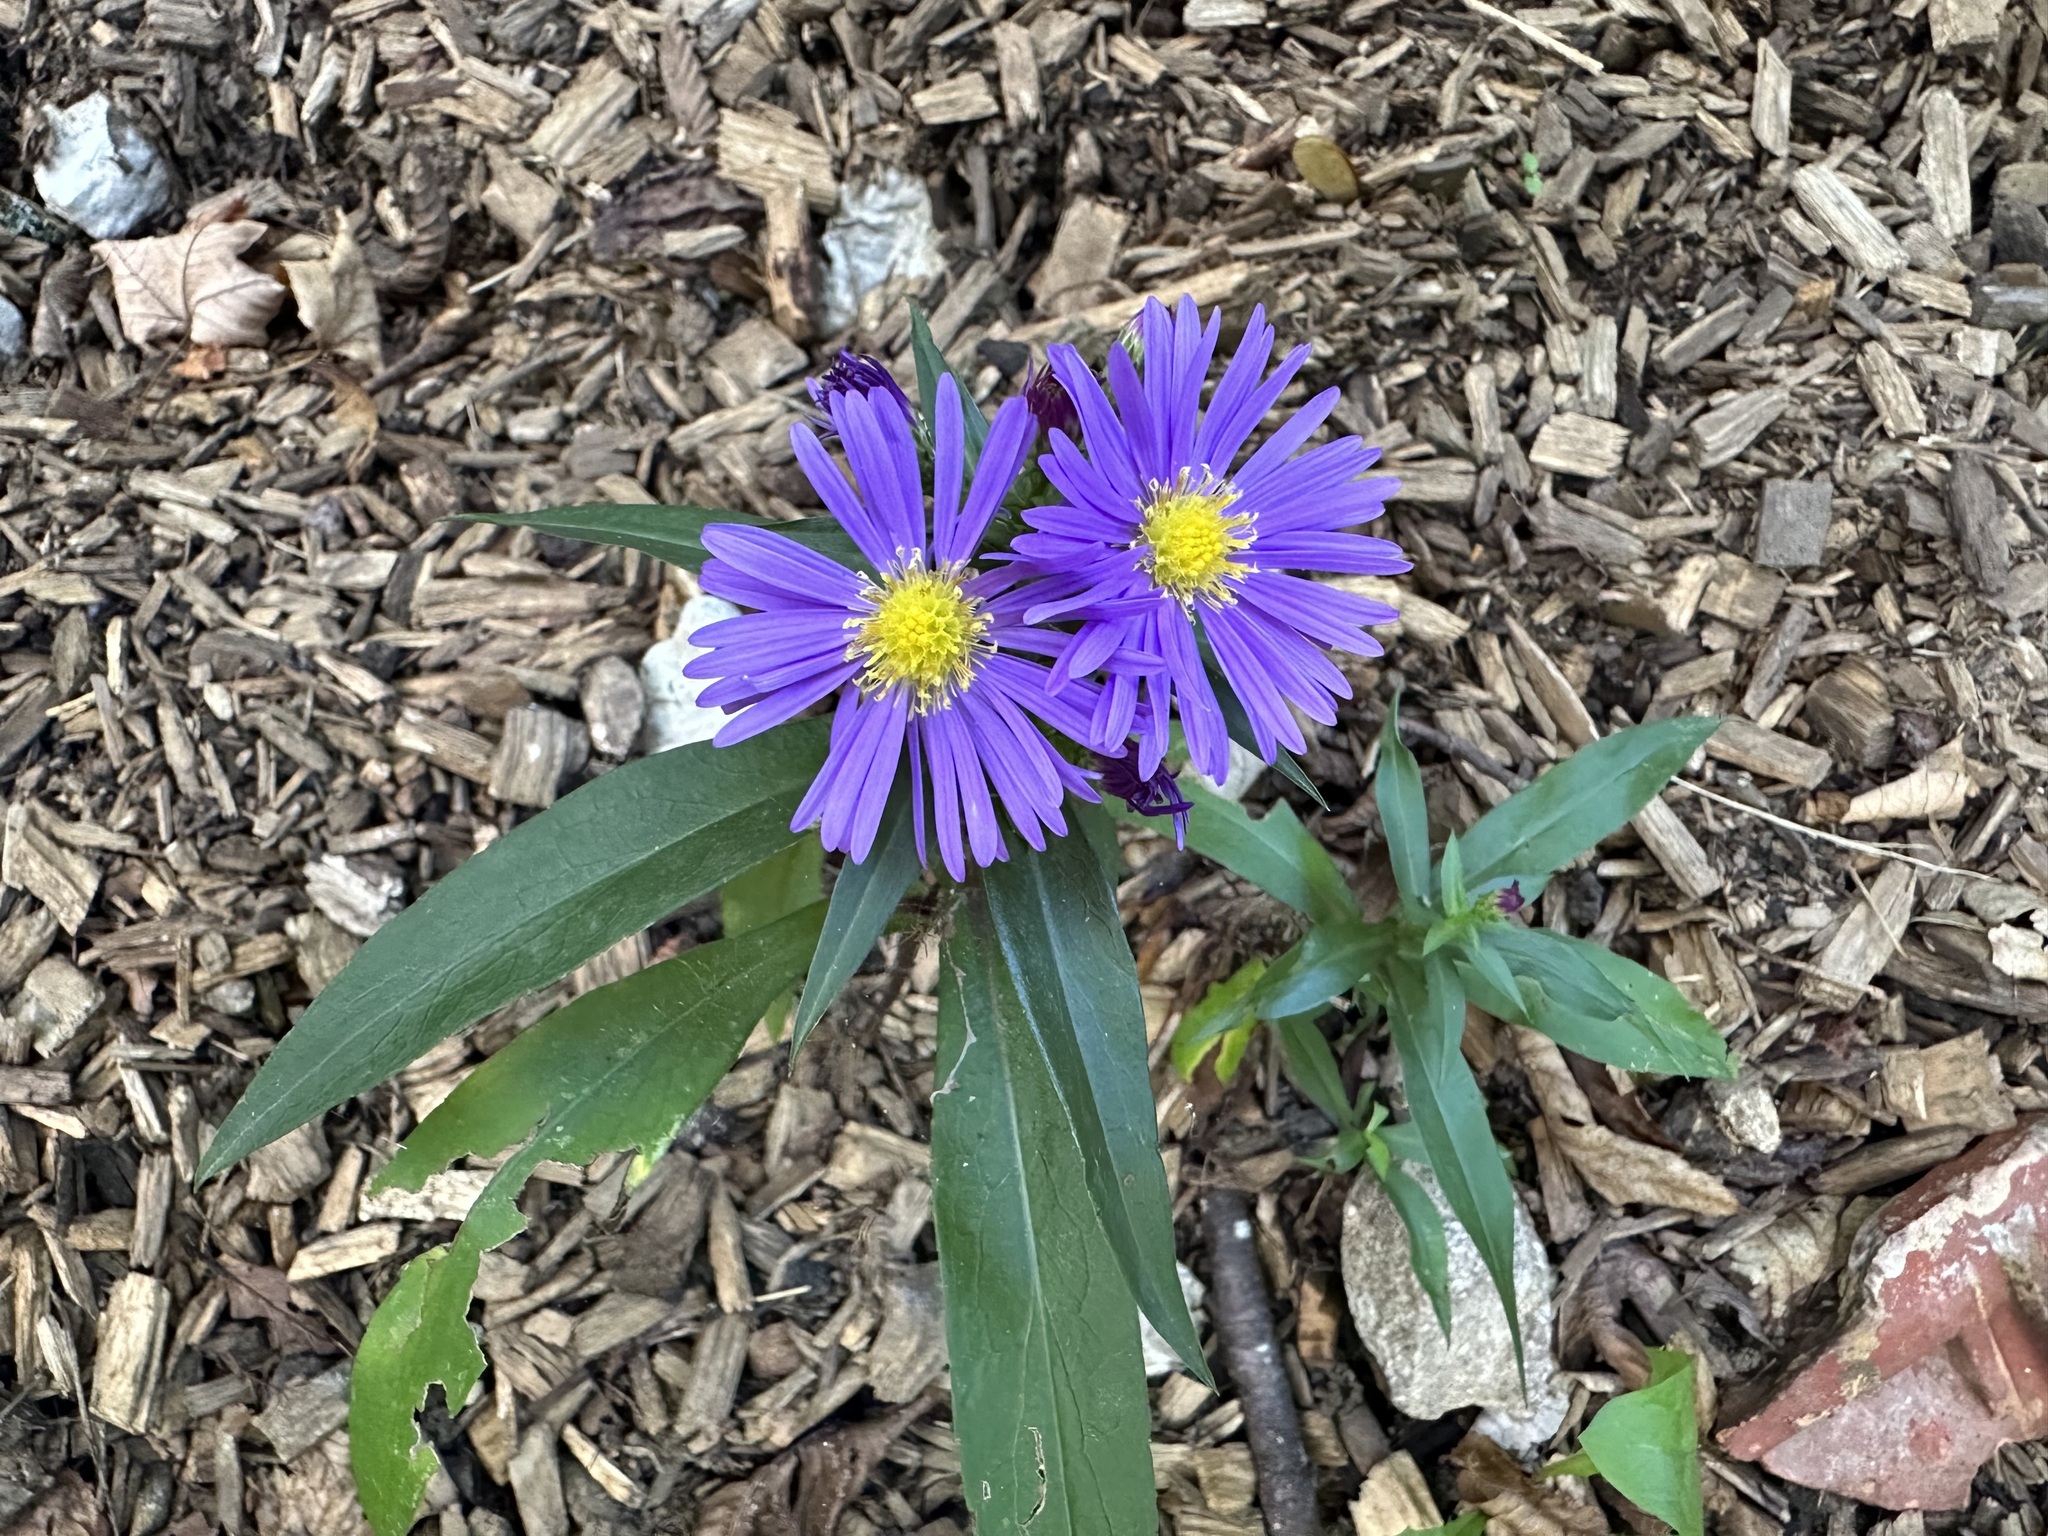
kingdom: Plantae
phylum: Tracheophyta
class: Magnoliopsida
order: Asterales
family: Asteraceae
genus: Symphyotrichum
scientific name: Symphyotrichum novae-angliae
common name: Michaelmas daisy
